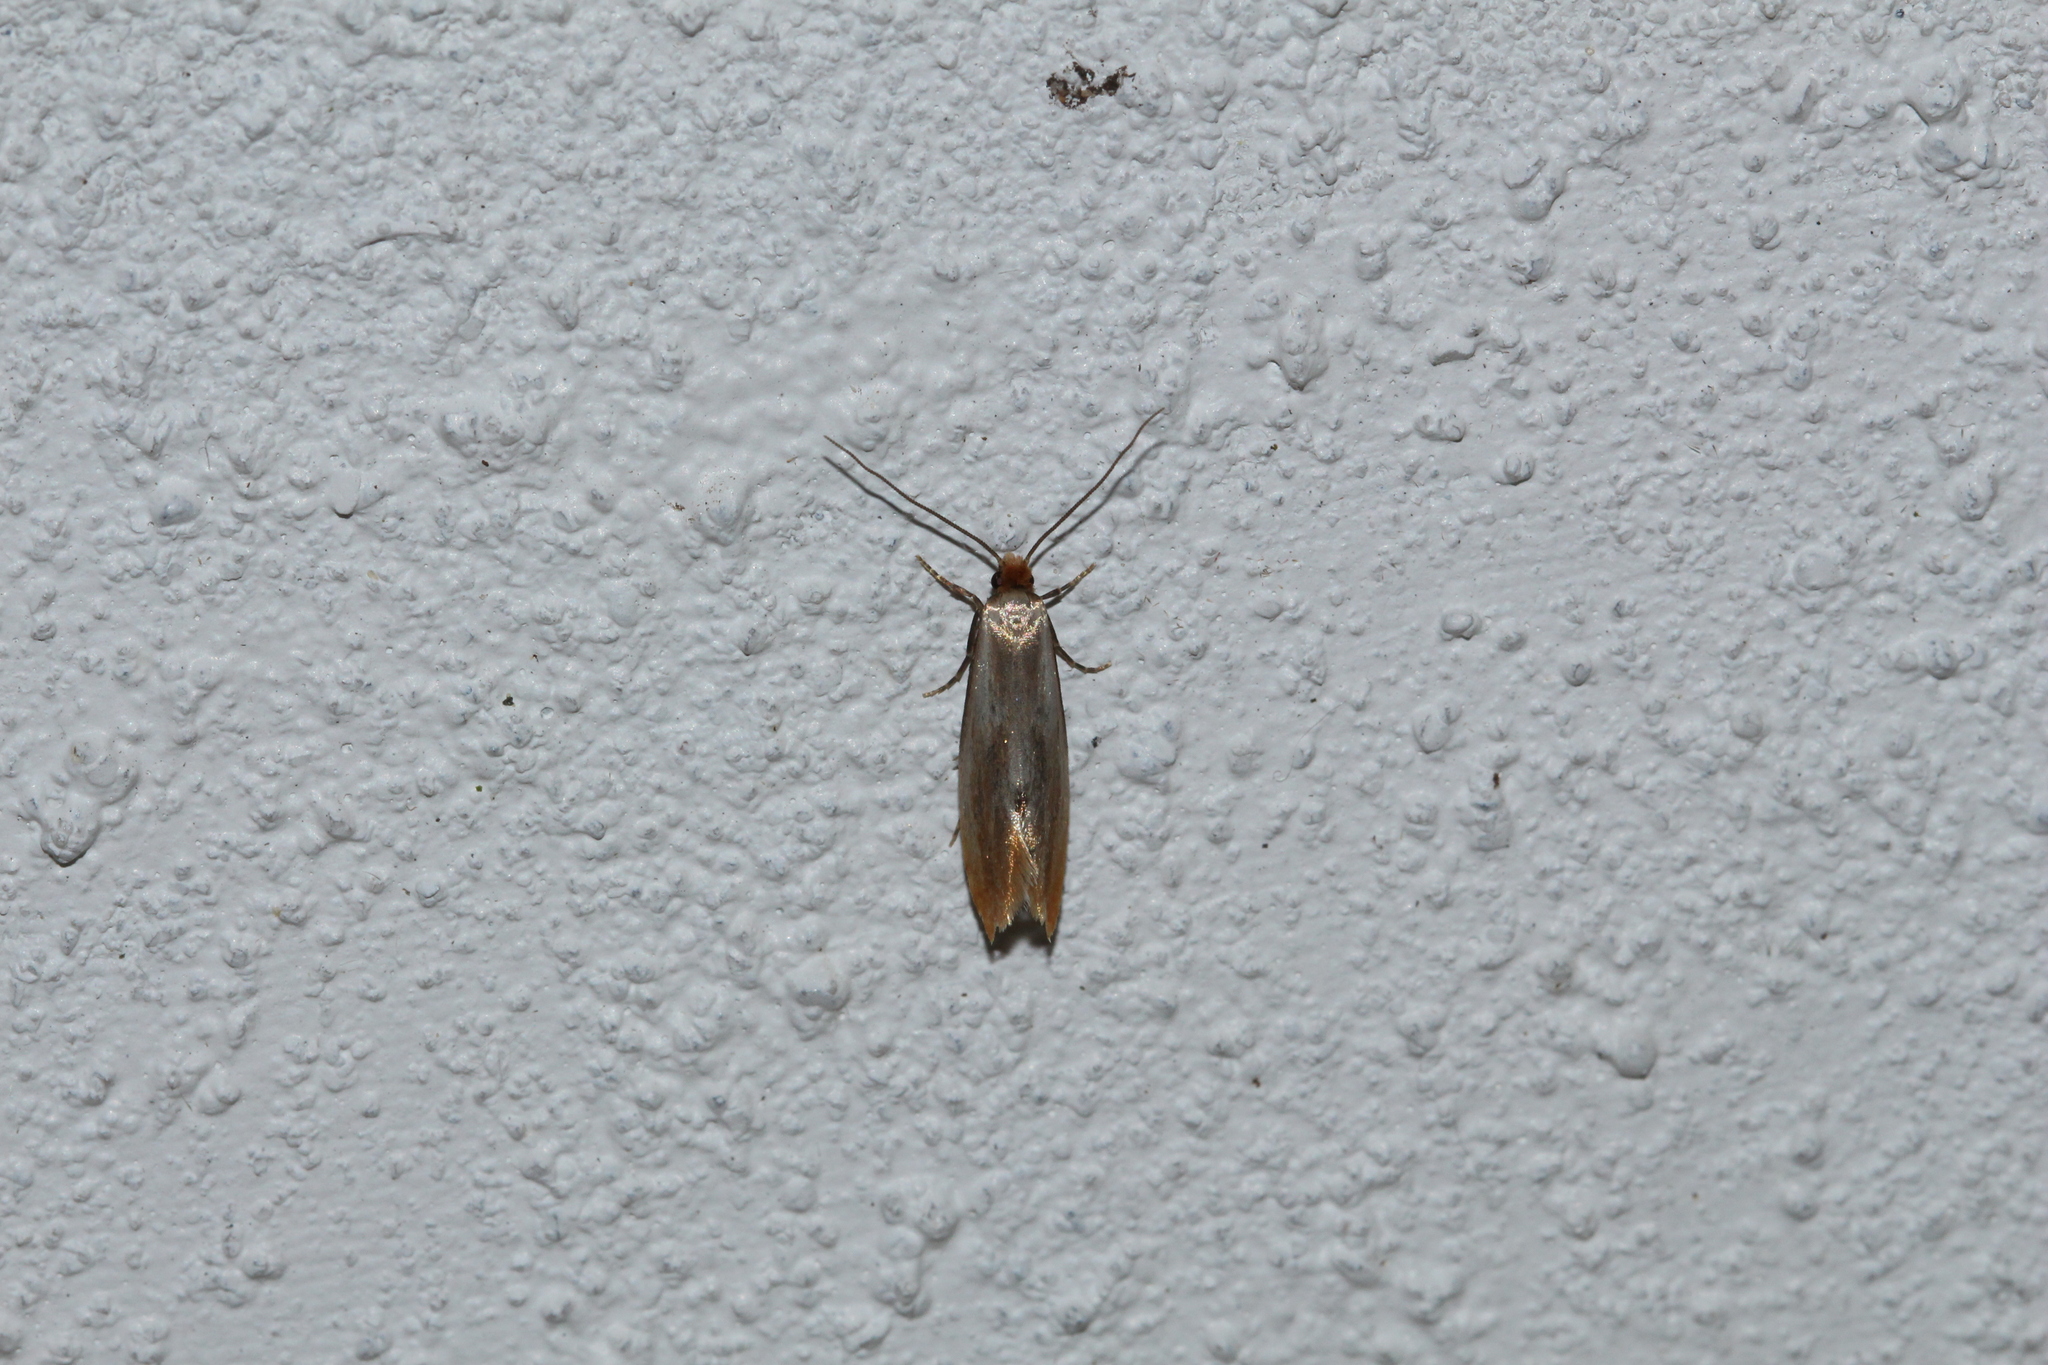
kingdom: Animalia
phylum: Arthropoda
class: Insecta
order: Lepidoptera
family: Tineidae
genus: Tinea
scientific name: Tinea semifulvella
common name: Fulvous clothes
